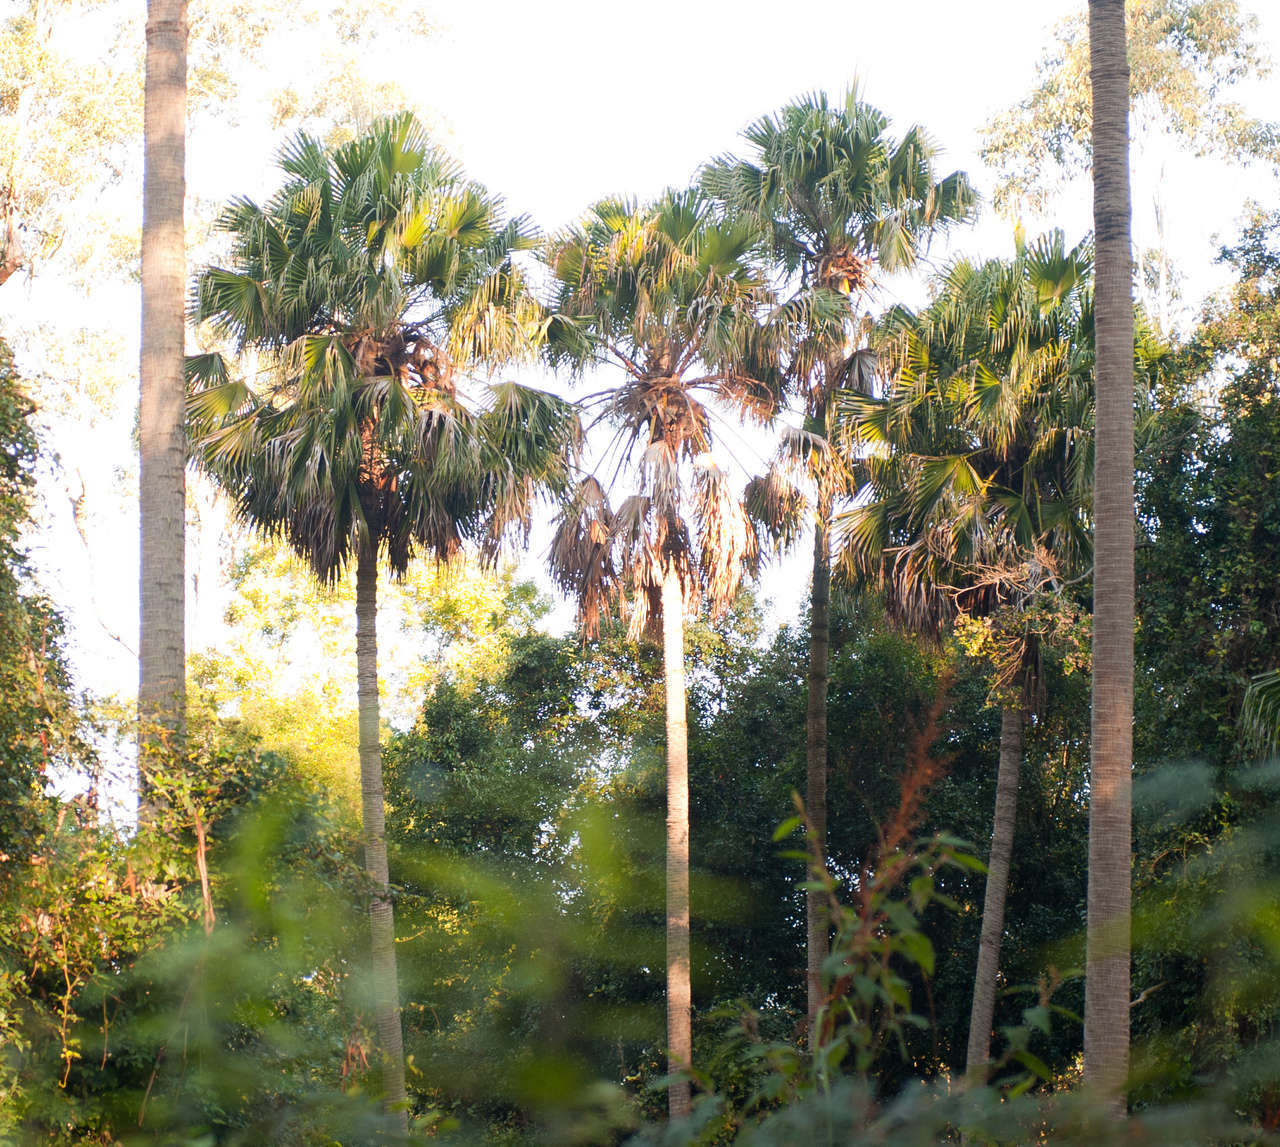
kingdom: Plantae
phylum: Tracheophyta
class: Liliopsida
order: Arecales
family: Arecaceae
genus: Livistona
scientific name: Livistona australis
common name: Cabbage fan palm
